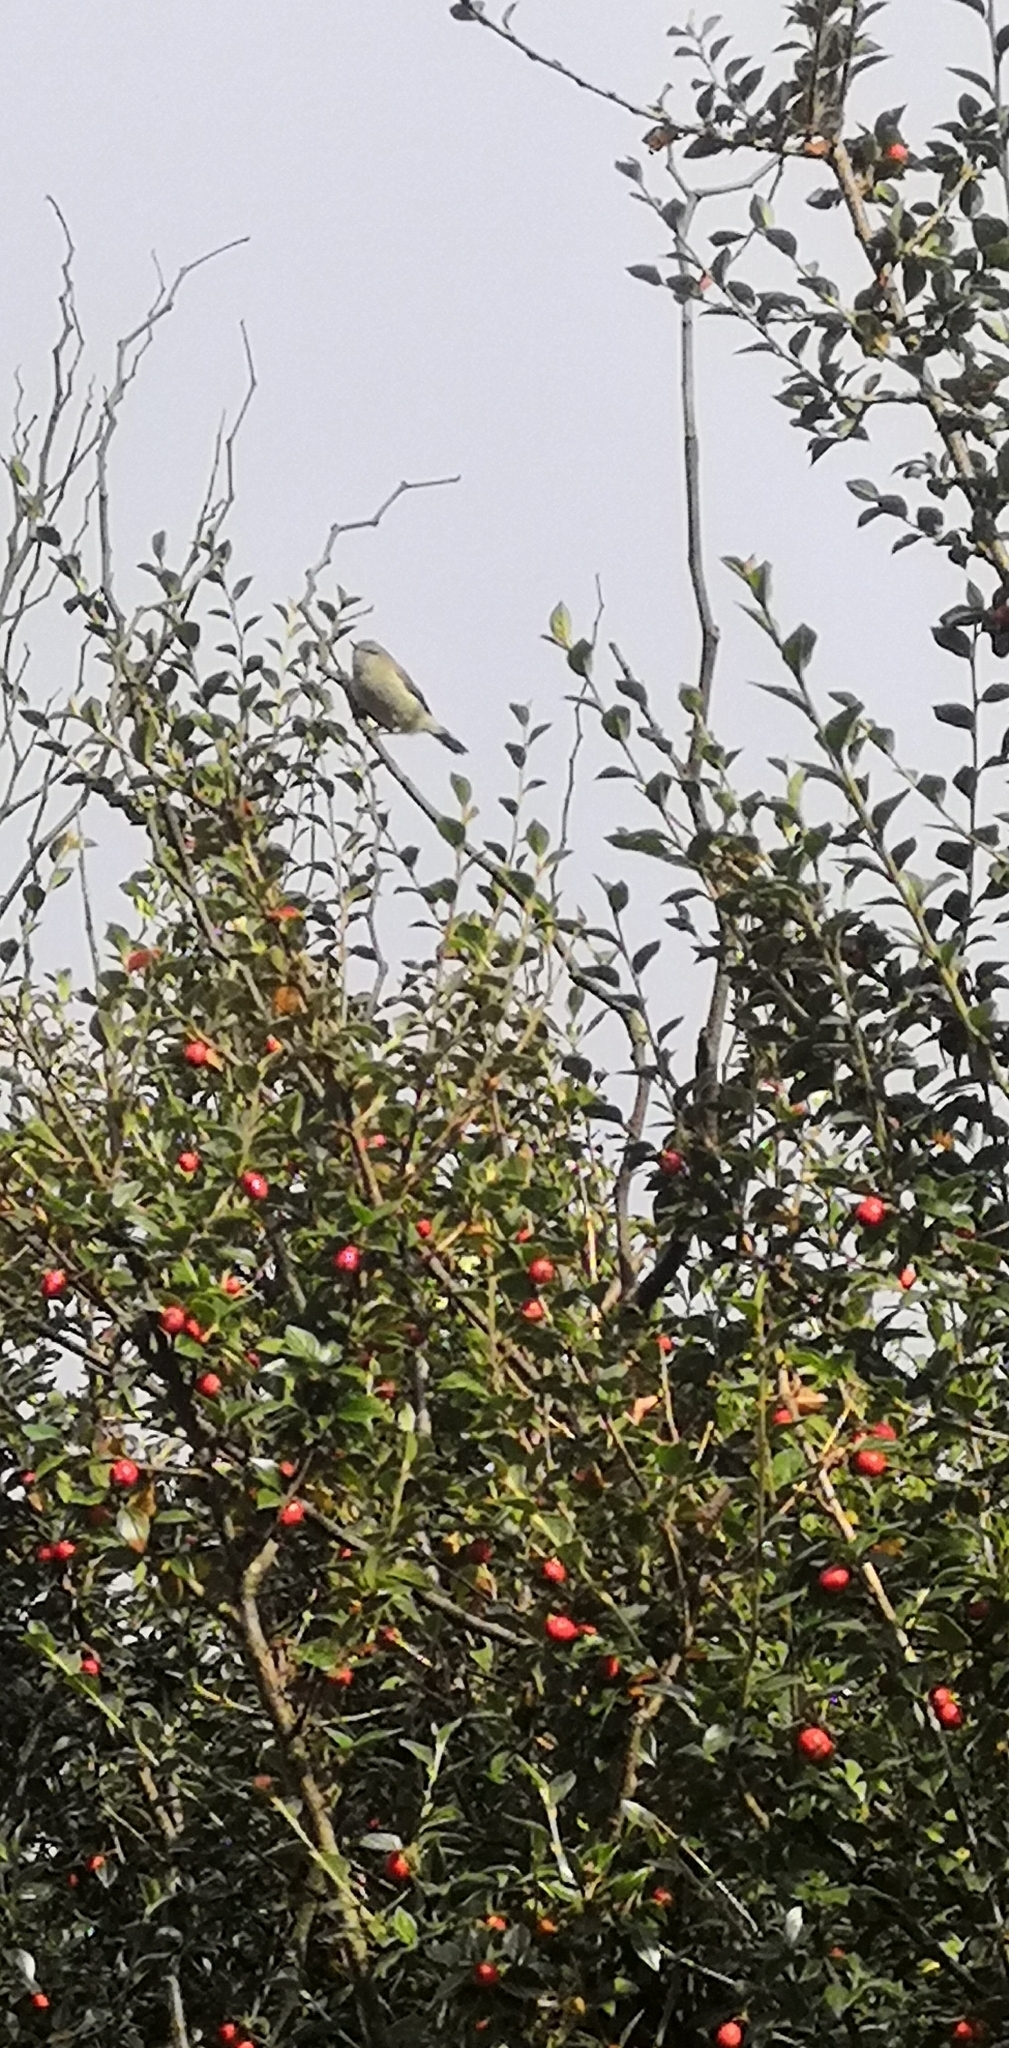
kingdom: Animalia
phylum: Chordata
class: Aves
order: Passeriformes
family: Acanthizidae
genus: Gerygone
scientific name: Gerygone igata
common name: Grey gerygone
